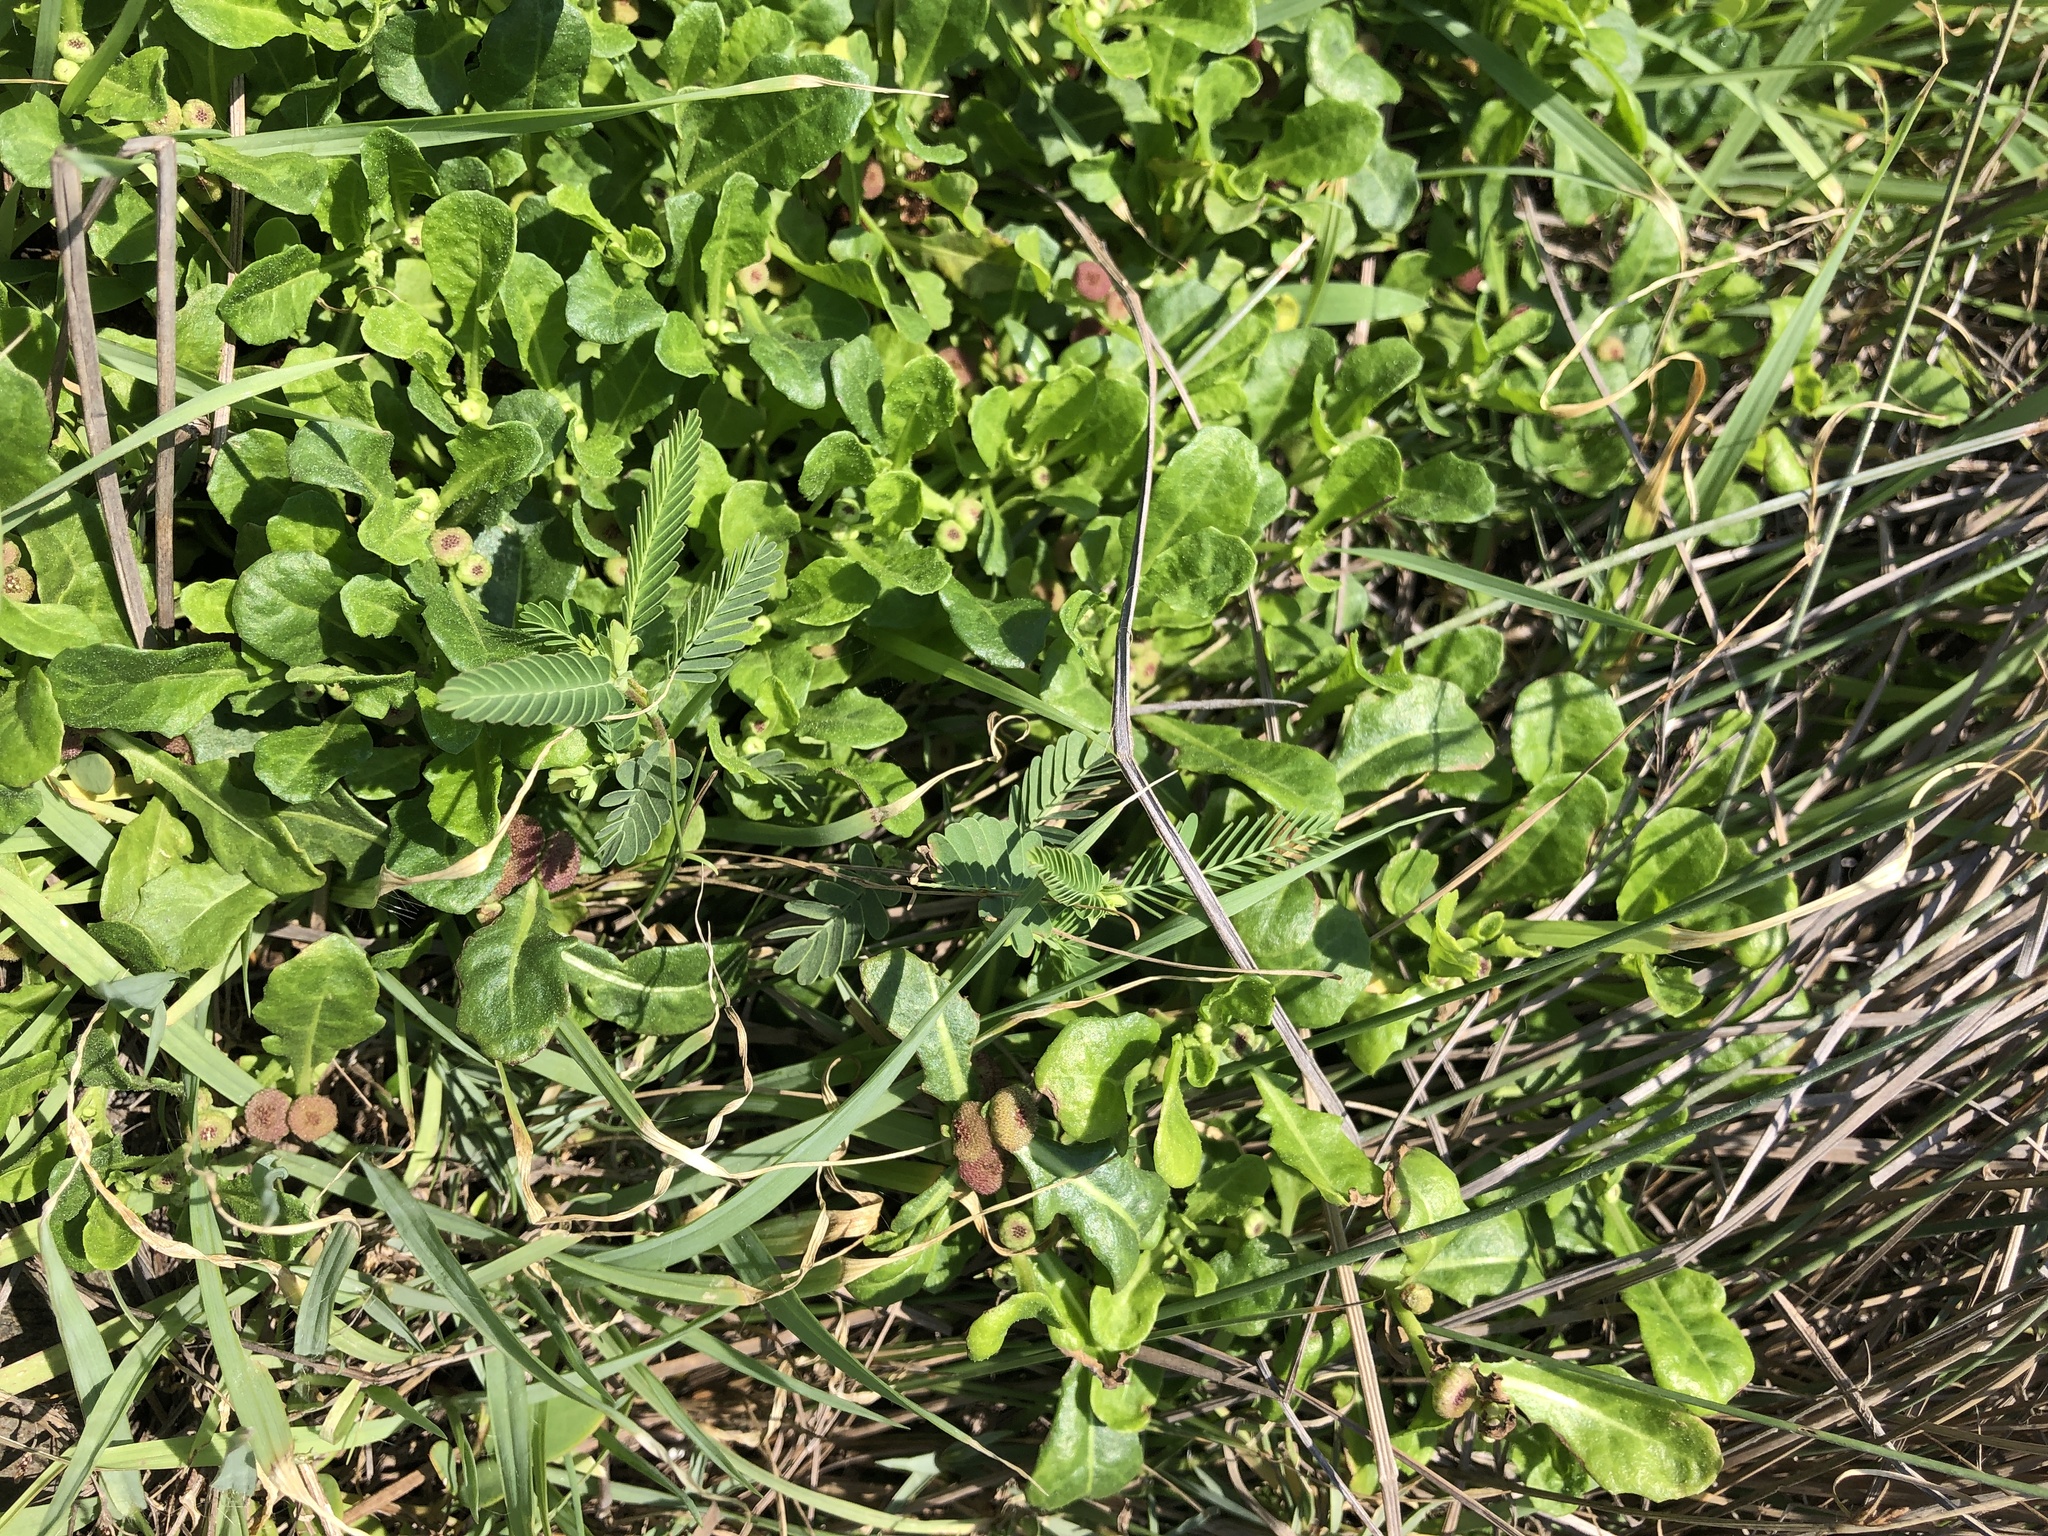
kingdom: Plantae
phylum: Tracheophyta
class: Magnoliopsida
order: Fabales
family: Fabaceae
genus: Aeschynomene
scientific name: Aeschynomene indica
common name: Indian jointvetch
